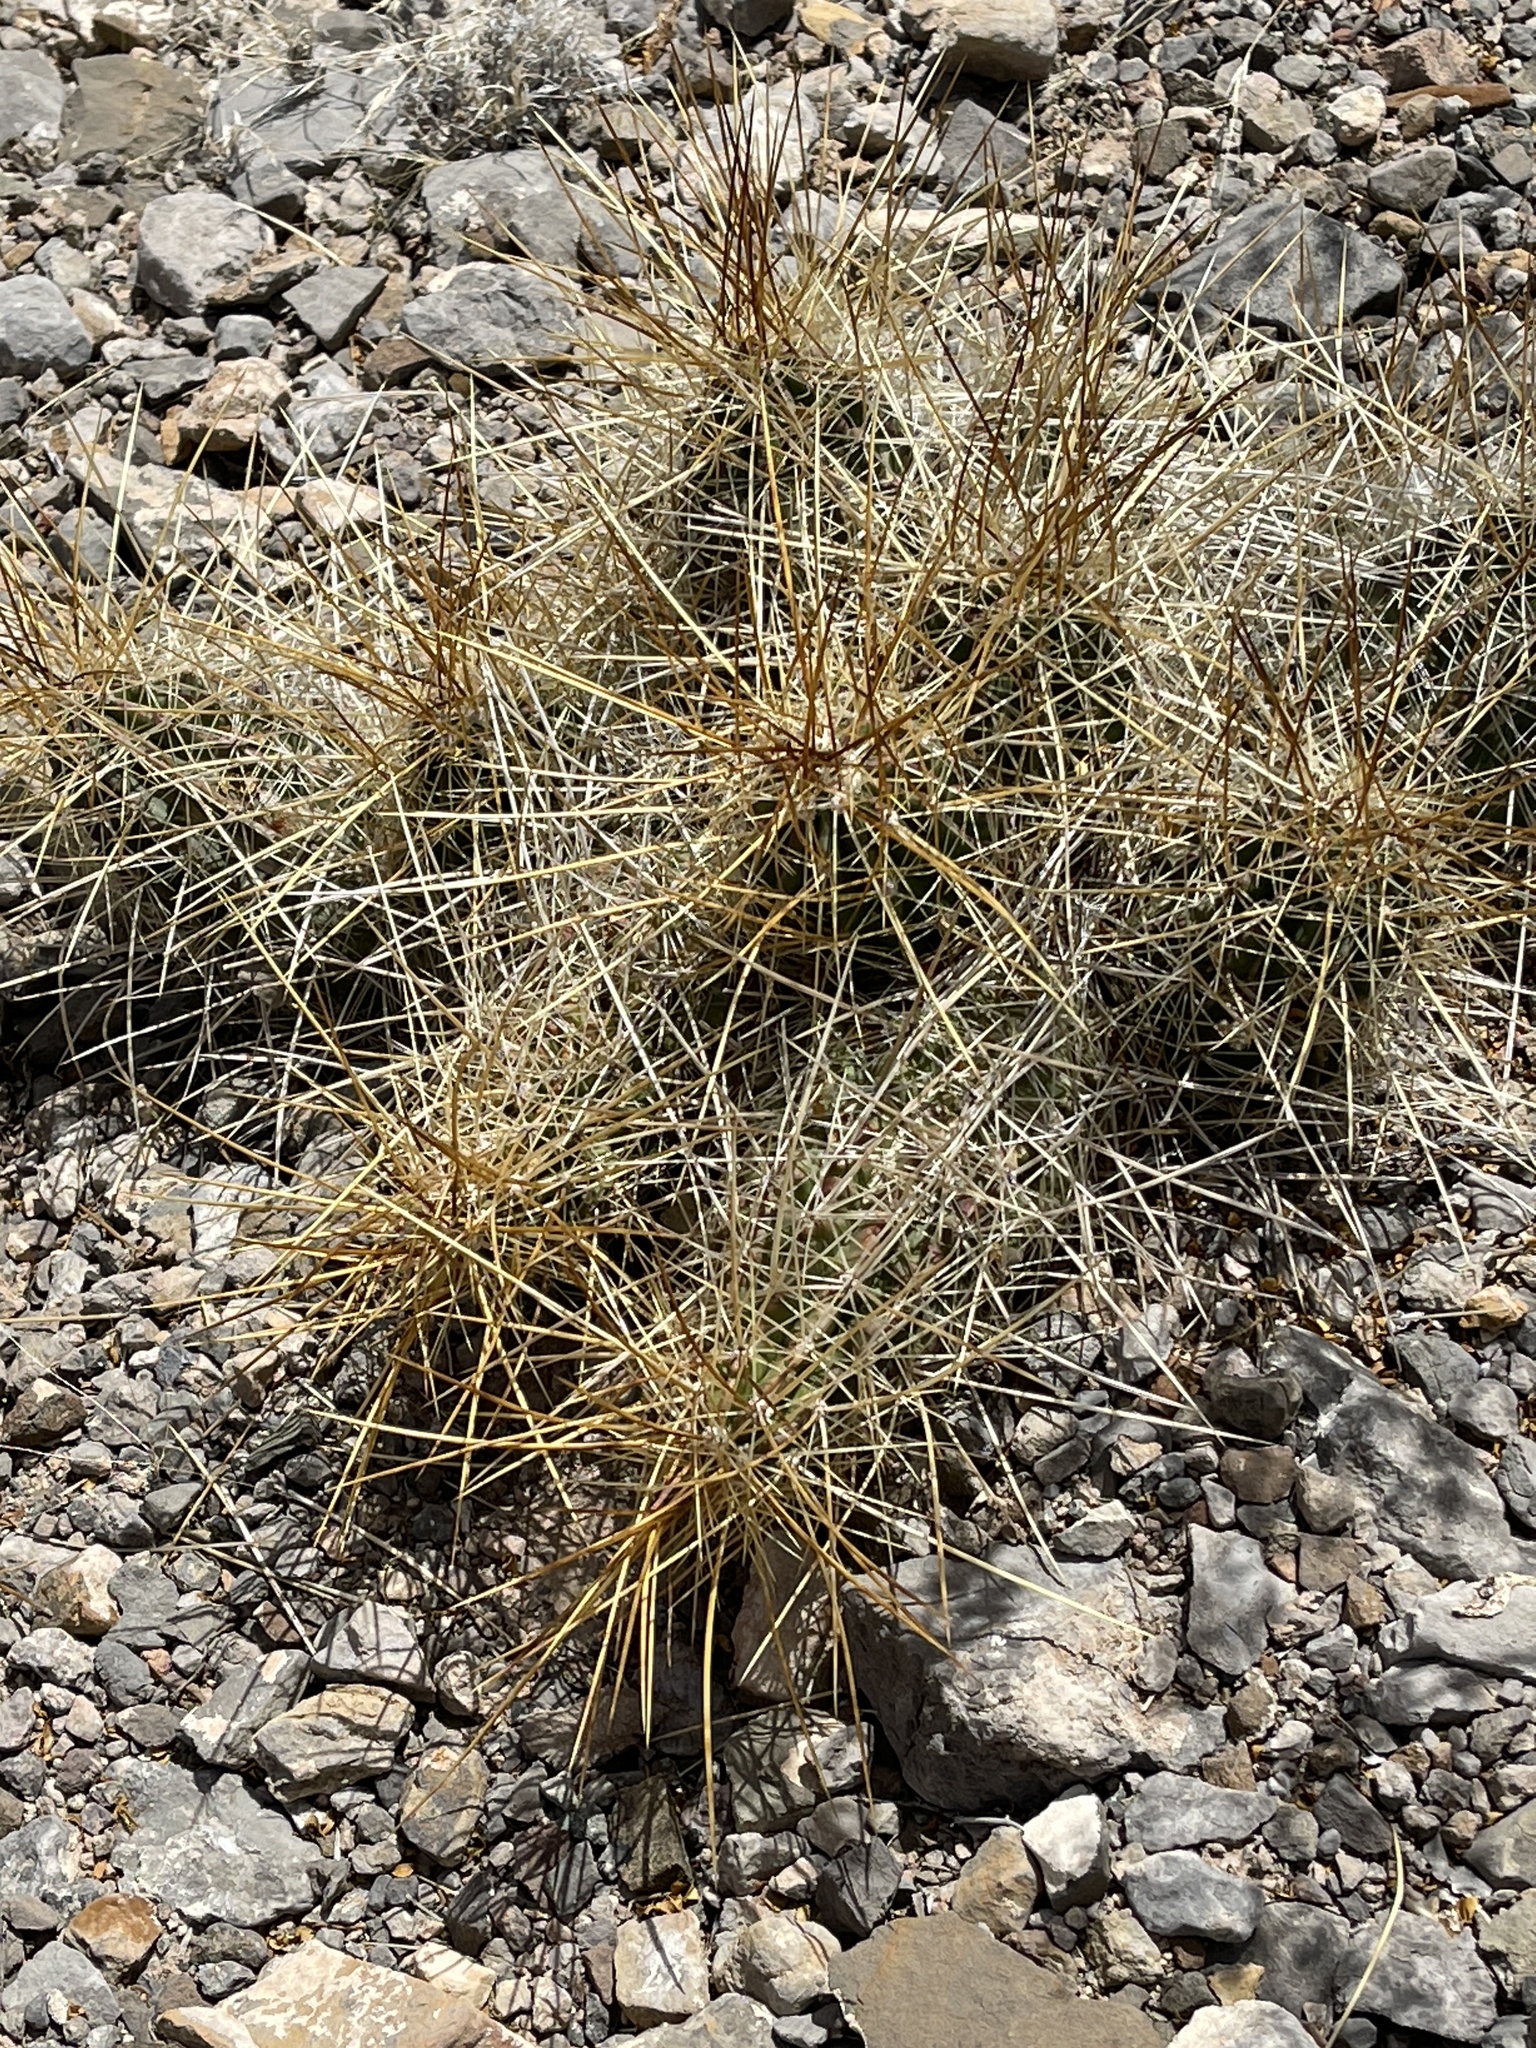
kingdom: Plantae
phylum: Tracheophyta
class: Magnoliopsida
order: Caryophyllales
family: Cactaceae
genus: Echinocereus
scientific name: Echinocereus stramineus
